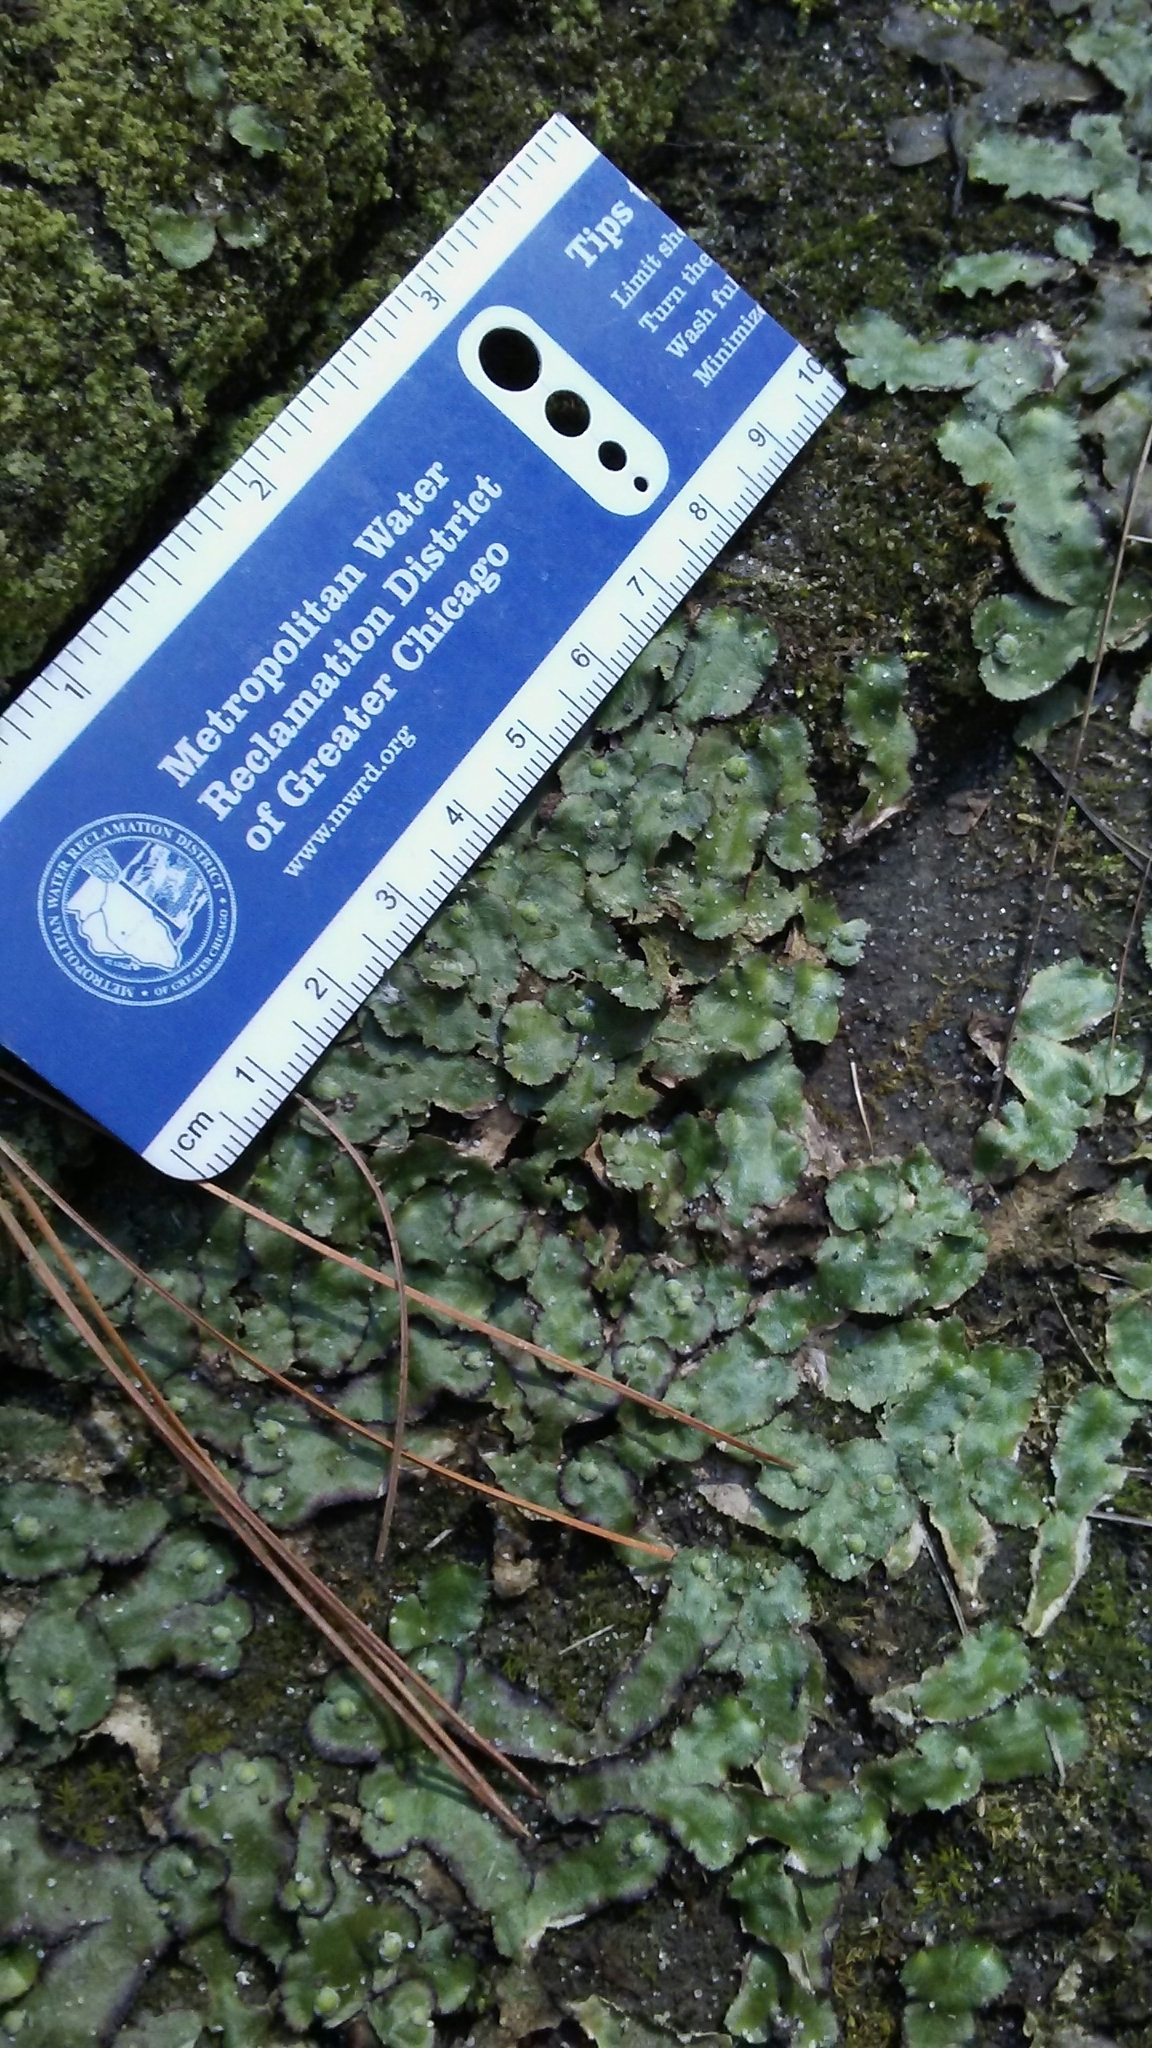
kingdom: Plantae
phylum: Marchantiophyta
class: Marchantiopsida
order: Marchantiales
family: Aytoniaceae
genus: Reboulia
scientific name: Reboulia hemisphaerica
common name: Purple-margined liverwort
